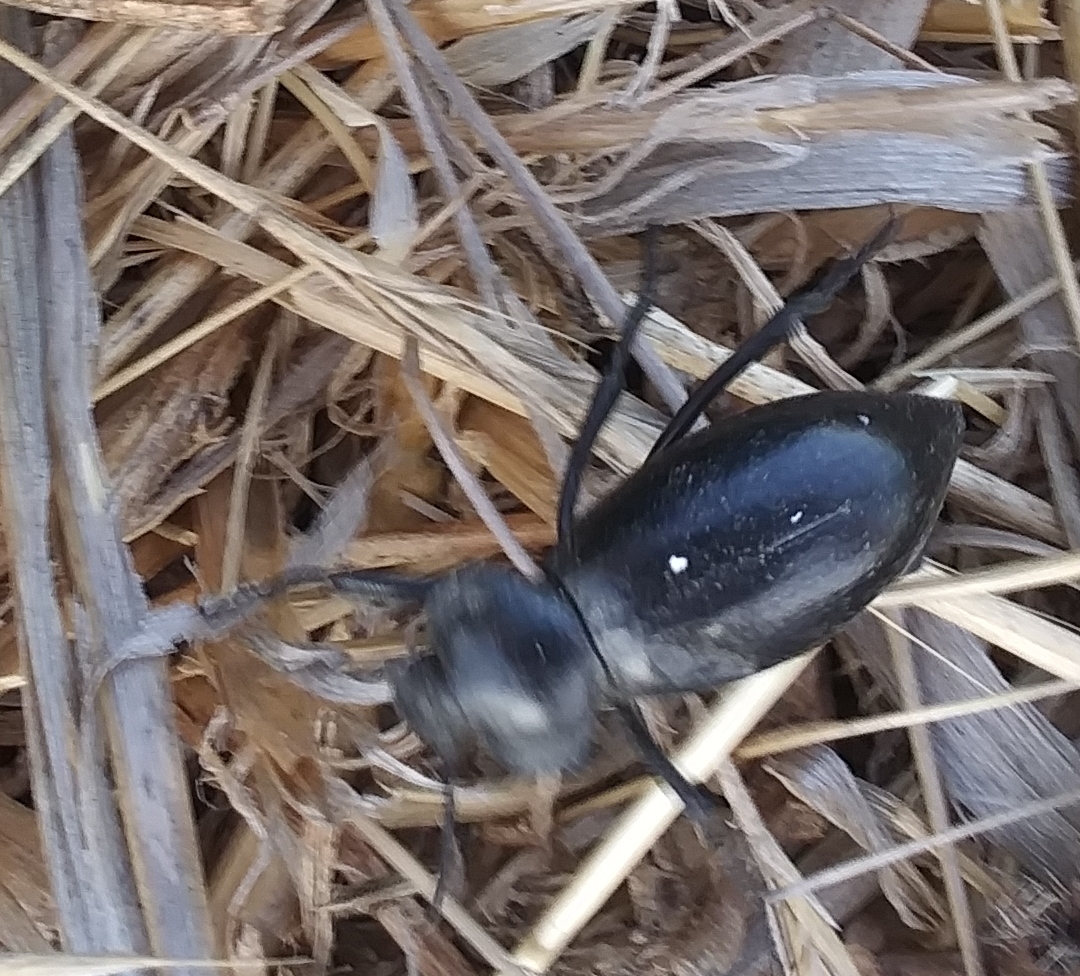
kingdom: Animalia
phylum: Arthropoda
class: Insecta
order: Coleoptera
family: Tenebrionidae
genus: Eleodes
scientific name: Eleodes acuticauda
